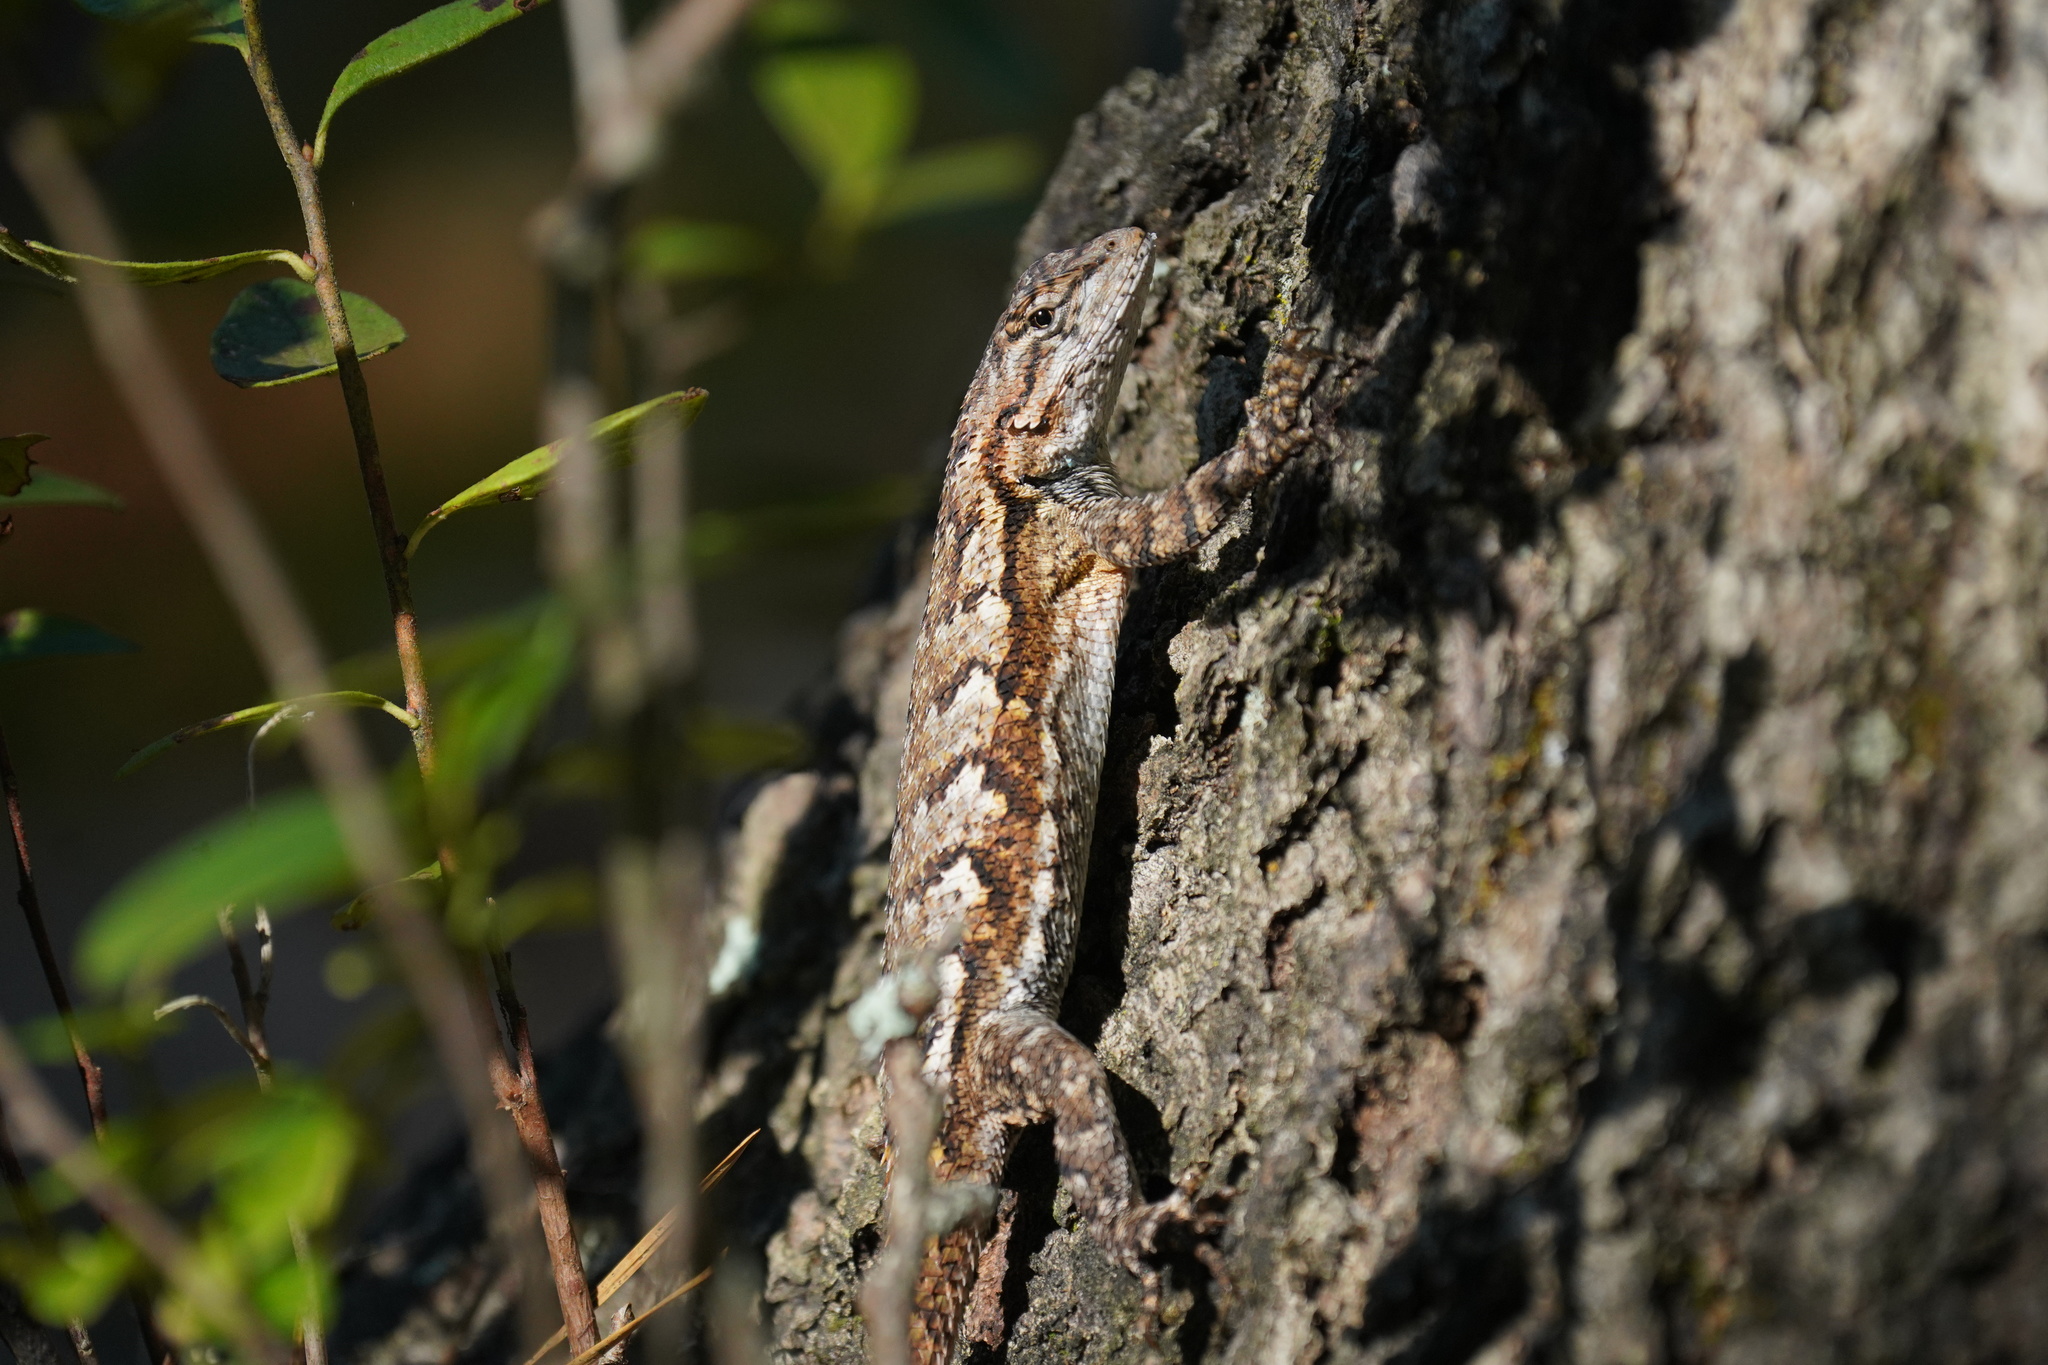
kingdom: Animalia
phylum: Chordata
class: Squamata
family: Phrynosomatidae
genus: Sceloporus
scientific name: Sceloporus undulatus
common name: Eastern fence lizard
